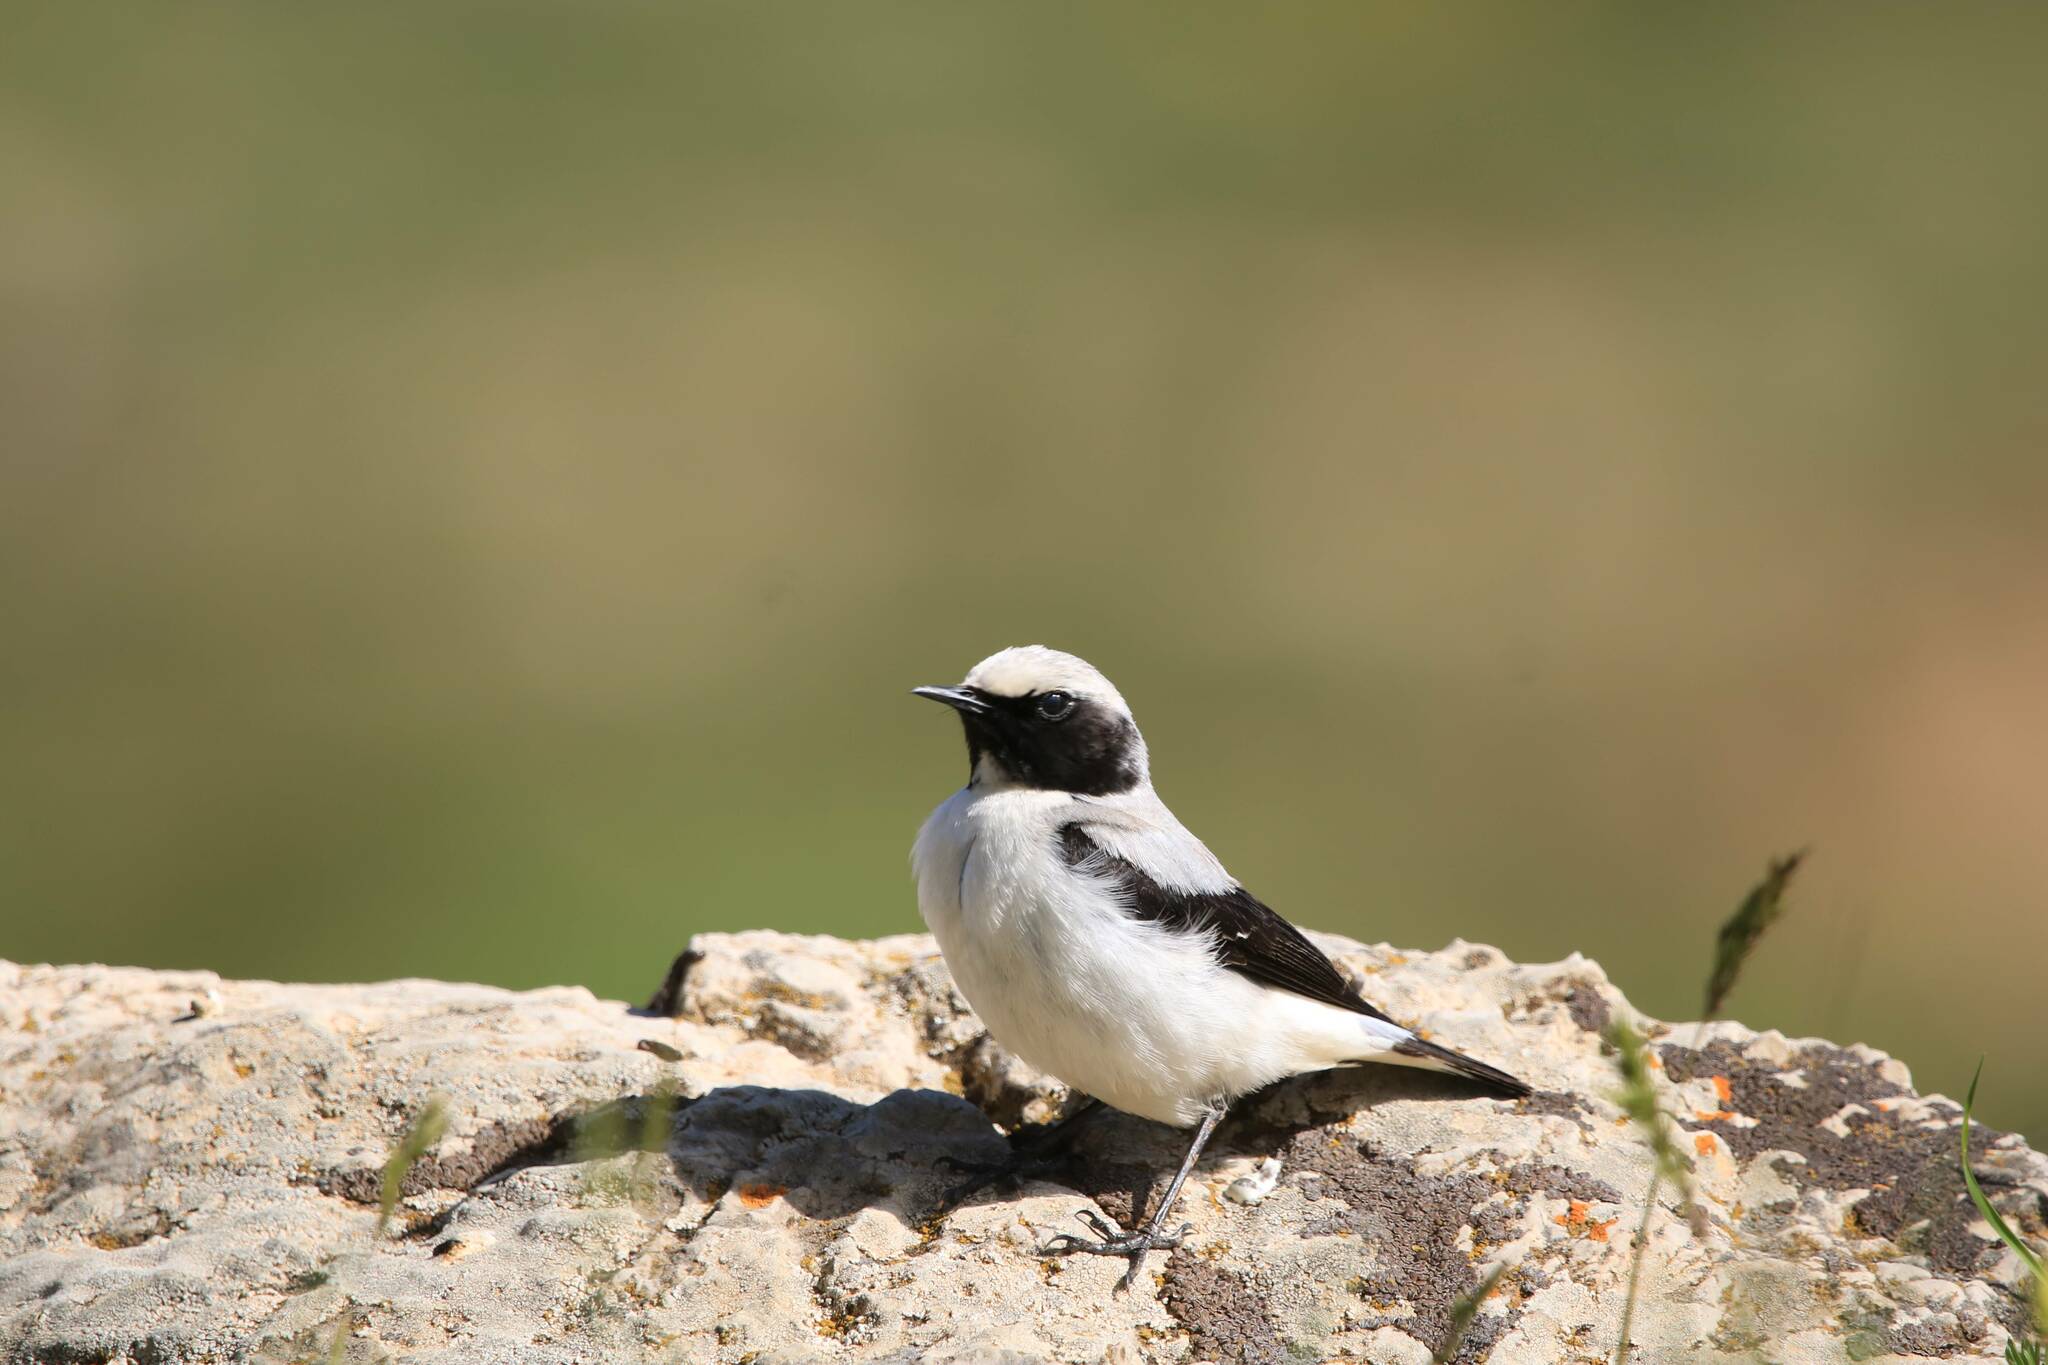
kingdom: Animalia
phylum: Chordata
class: Aves
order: Passeriformes
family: Muscicapidae
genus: Oenanthe
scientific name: Oenanthe oenanthe
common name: Northern wheatear
